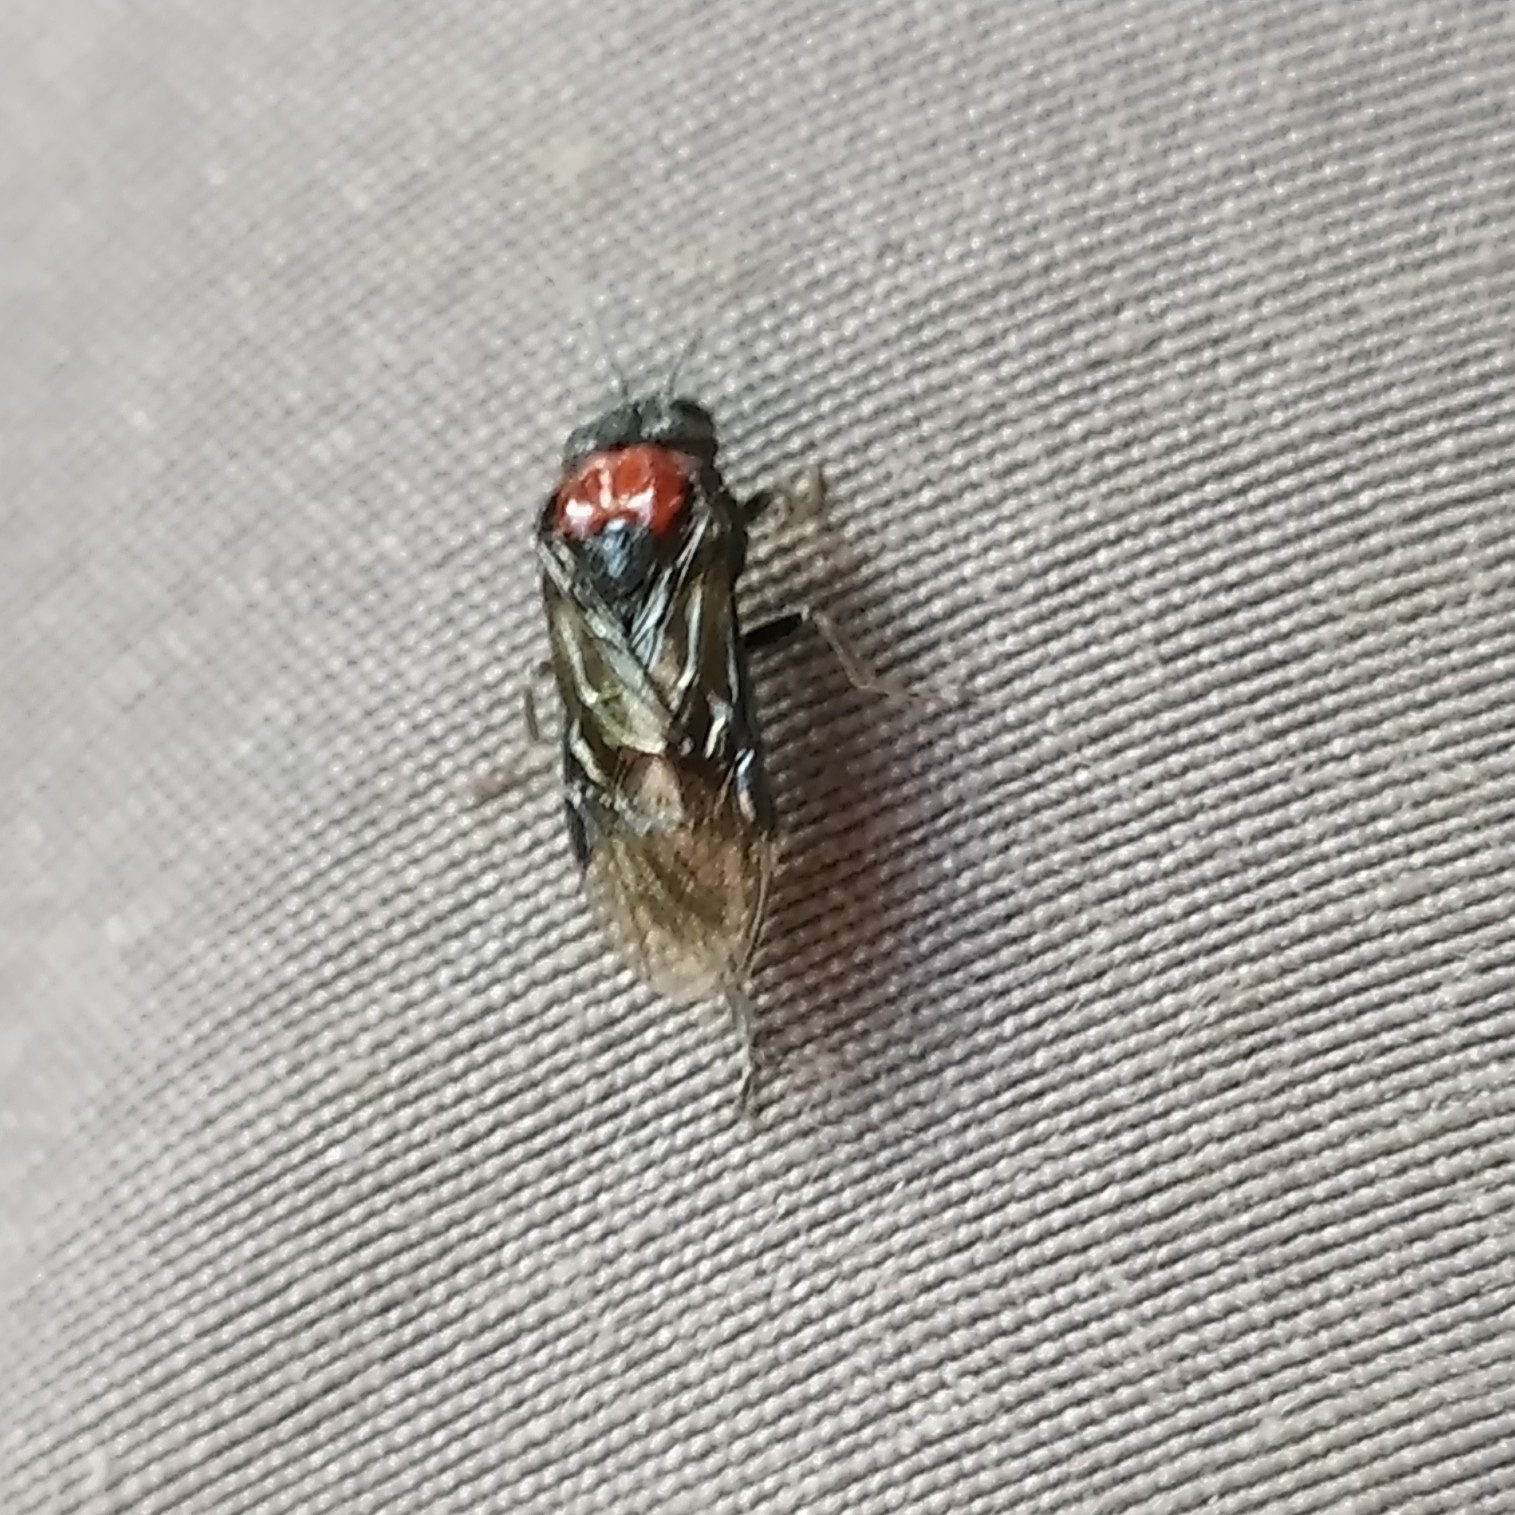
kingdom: Animalia
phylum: Arthropoda
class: Insecta
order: Hymenoptera
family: Tenthredinidae
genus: Eriocampa
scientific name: Eriocampa ovata
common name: Alder wooly sawfly
